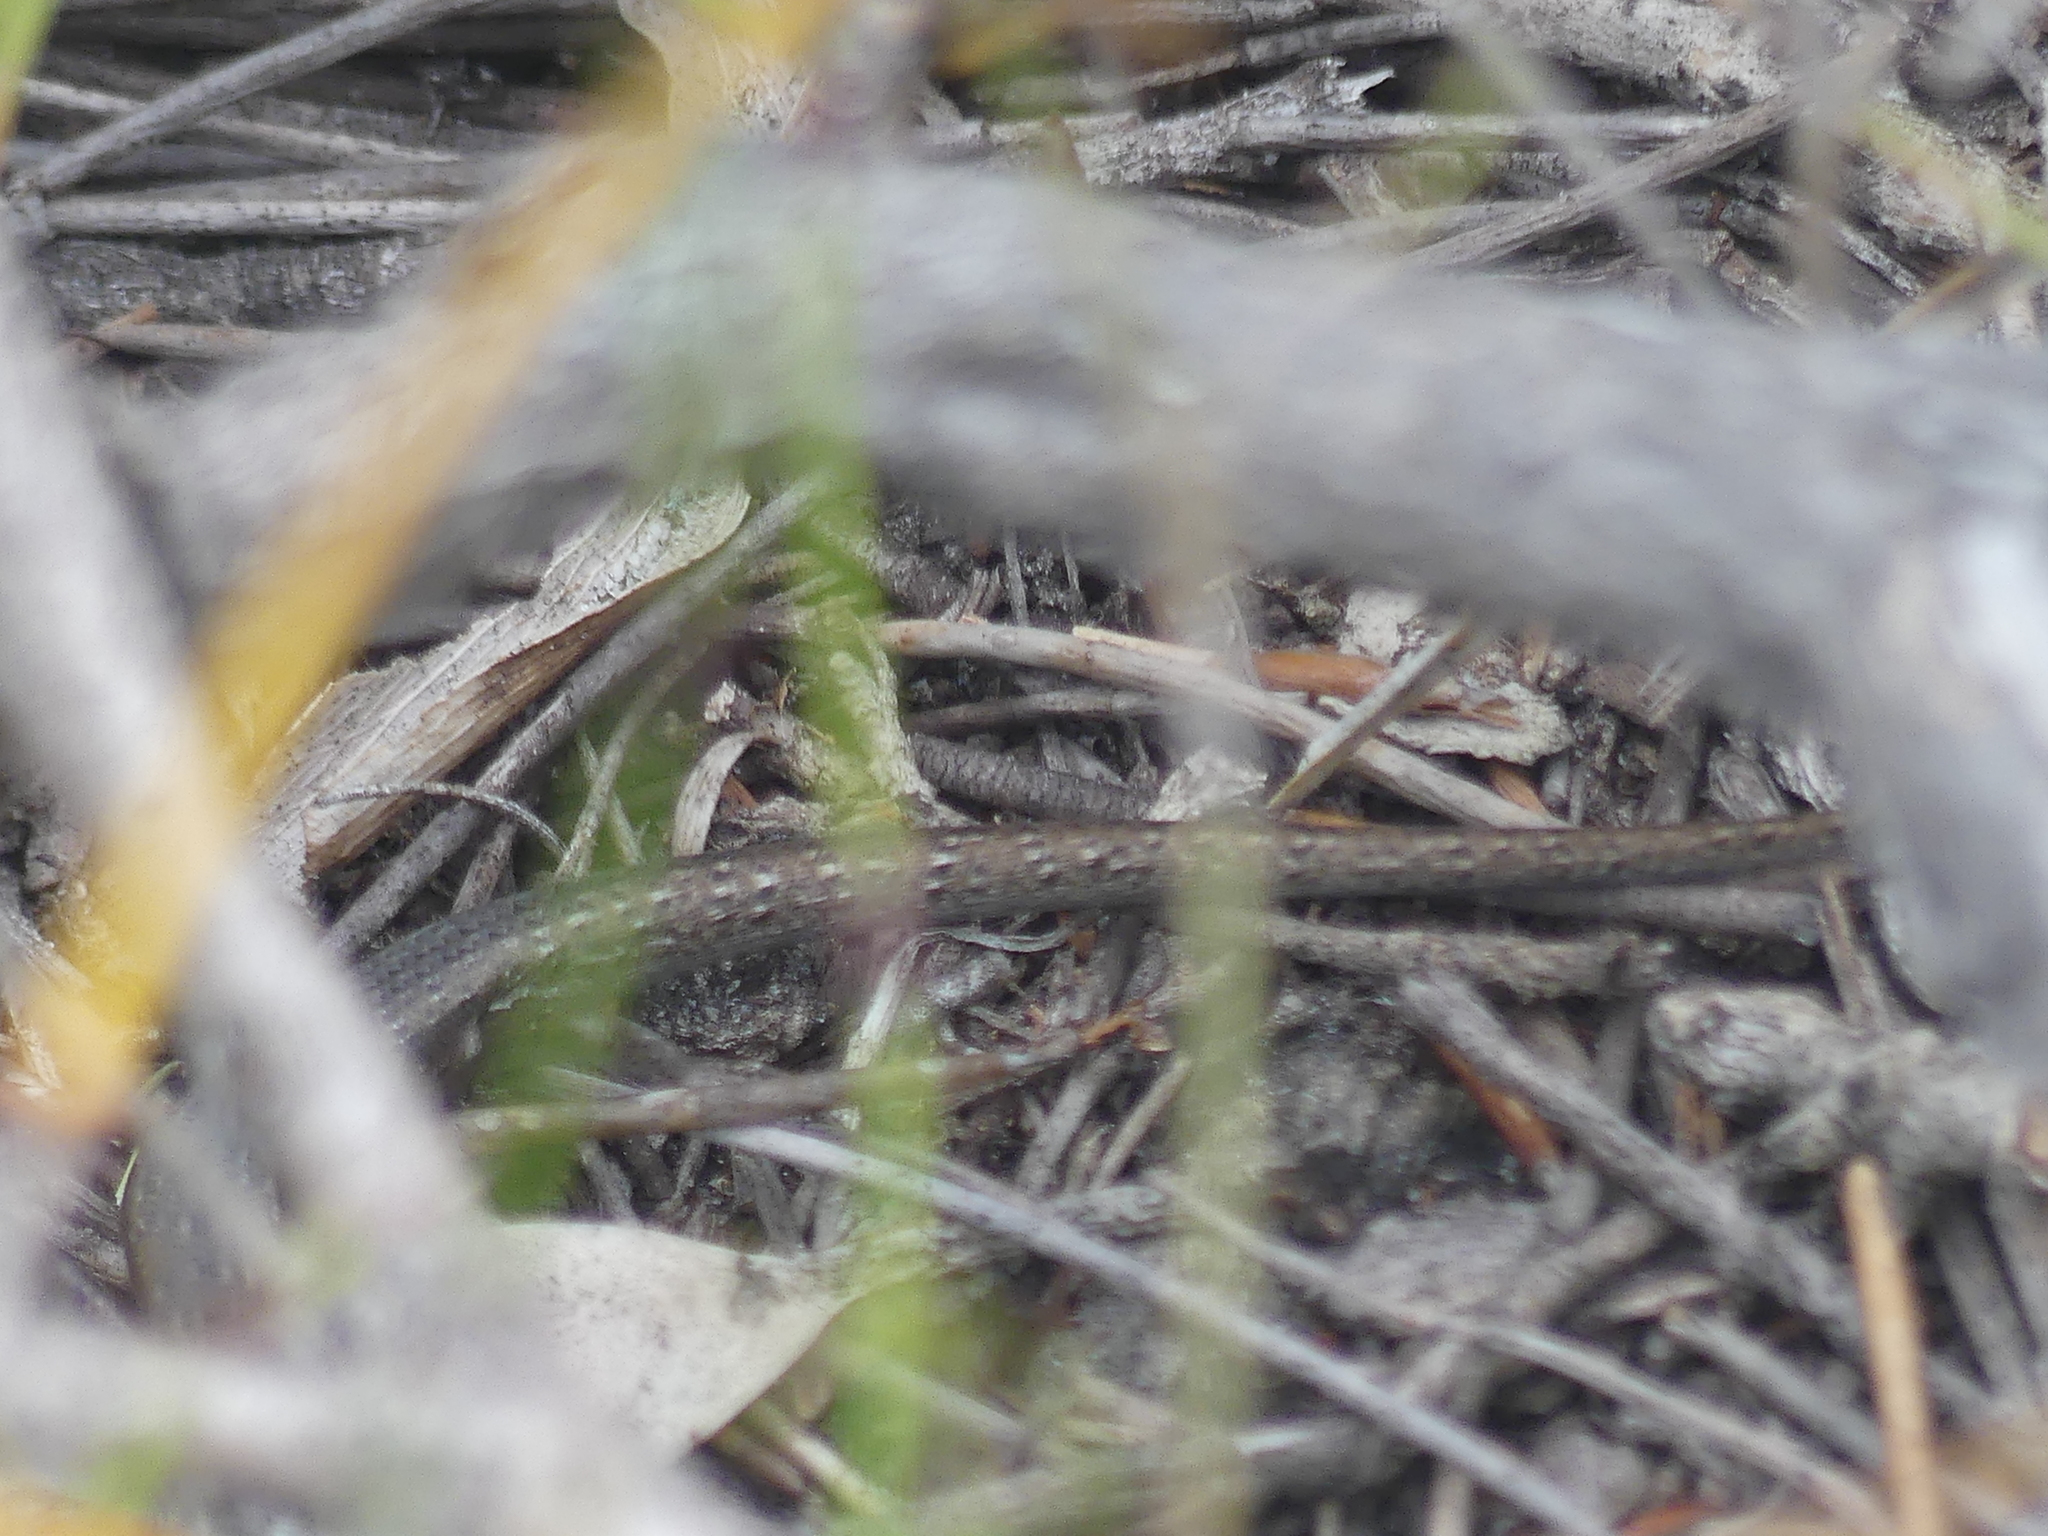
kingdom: Animalia
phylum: Chordata
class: Squamata
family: Scincidae
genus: Morethia
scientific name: Morethia obscura
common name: Shrubland morethia skink
